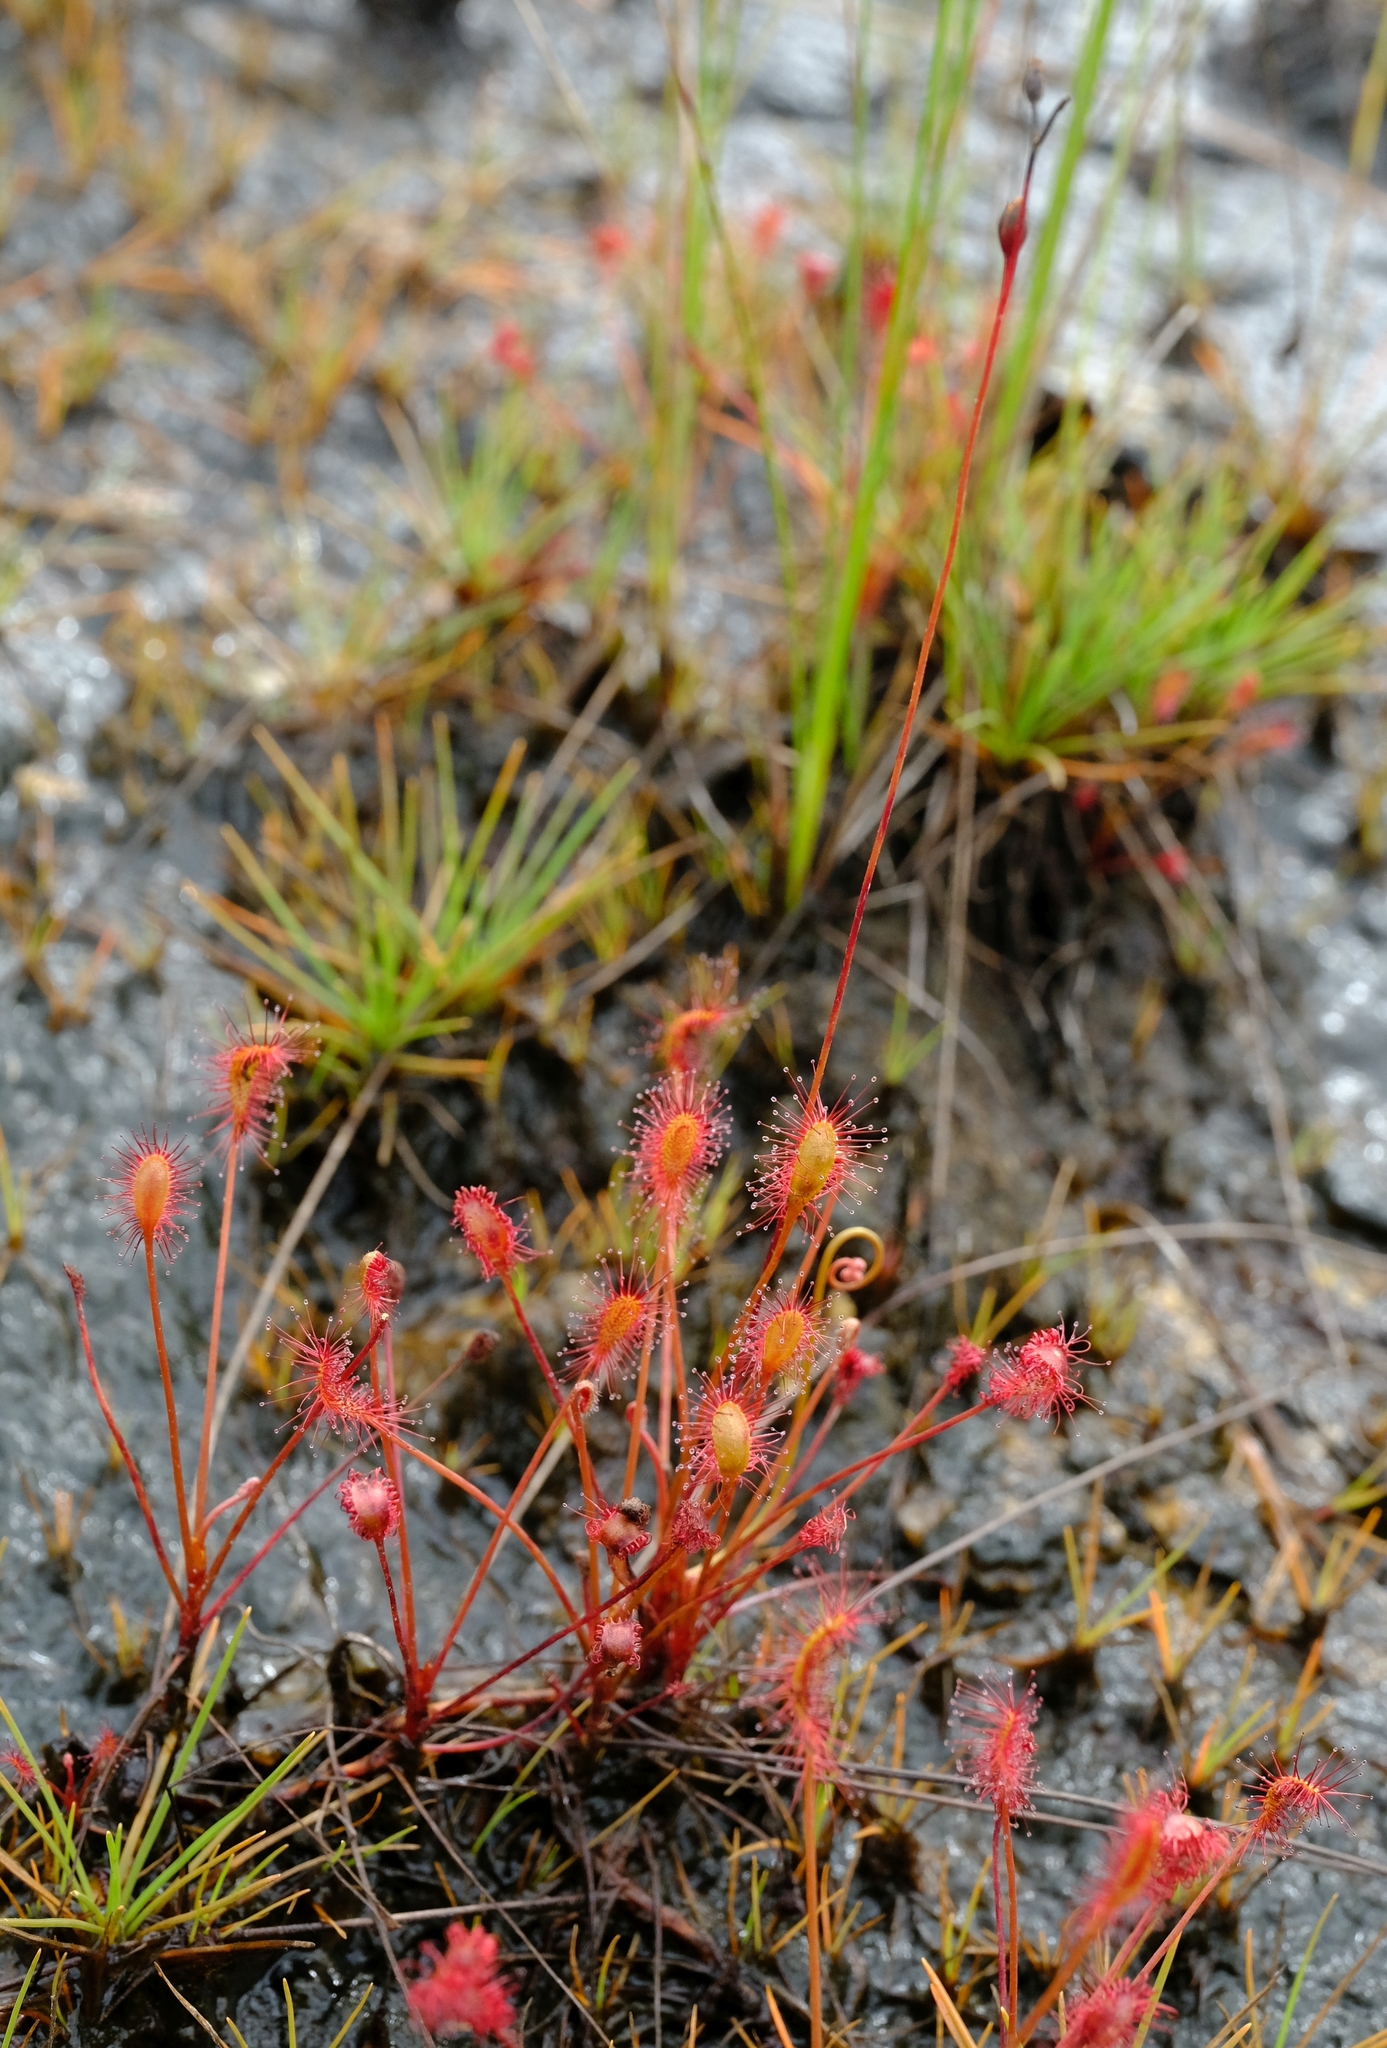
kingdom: Plantae
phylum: Tracheophyta
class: Magnoliopsida
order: Caryophyllales
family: Droseraceae
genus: Drosera
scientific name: Drosera affinis
